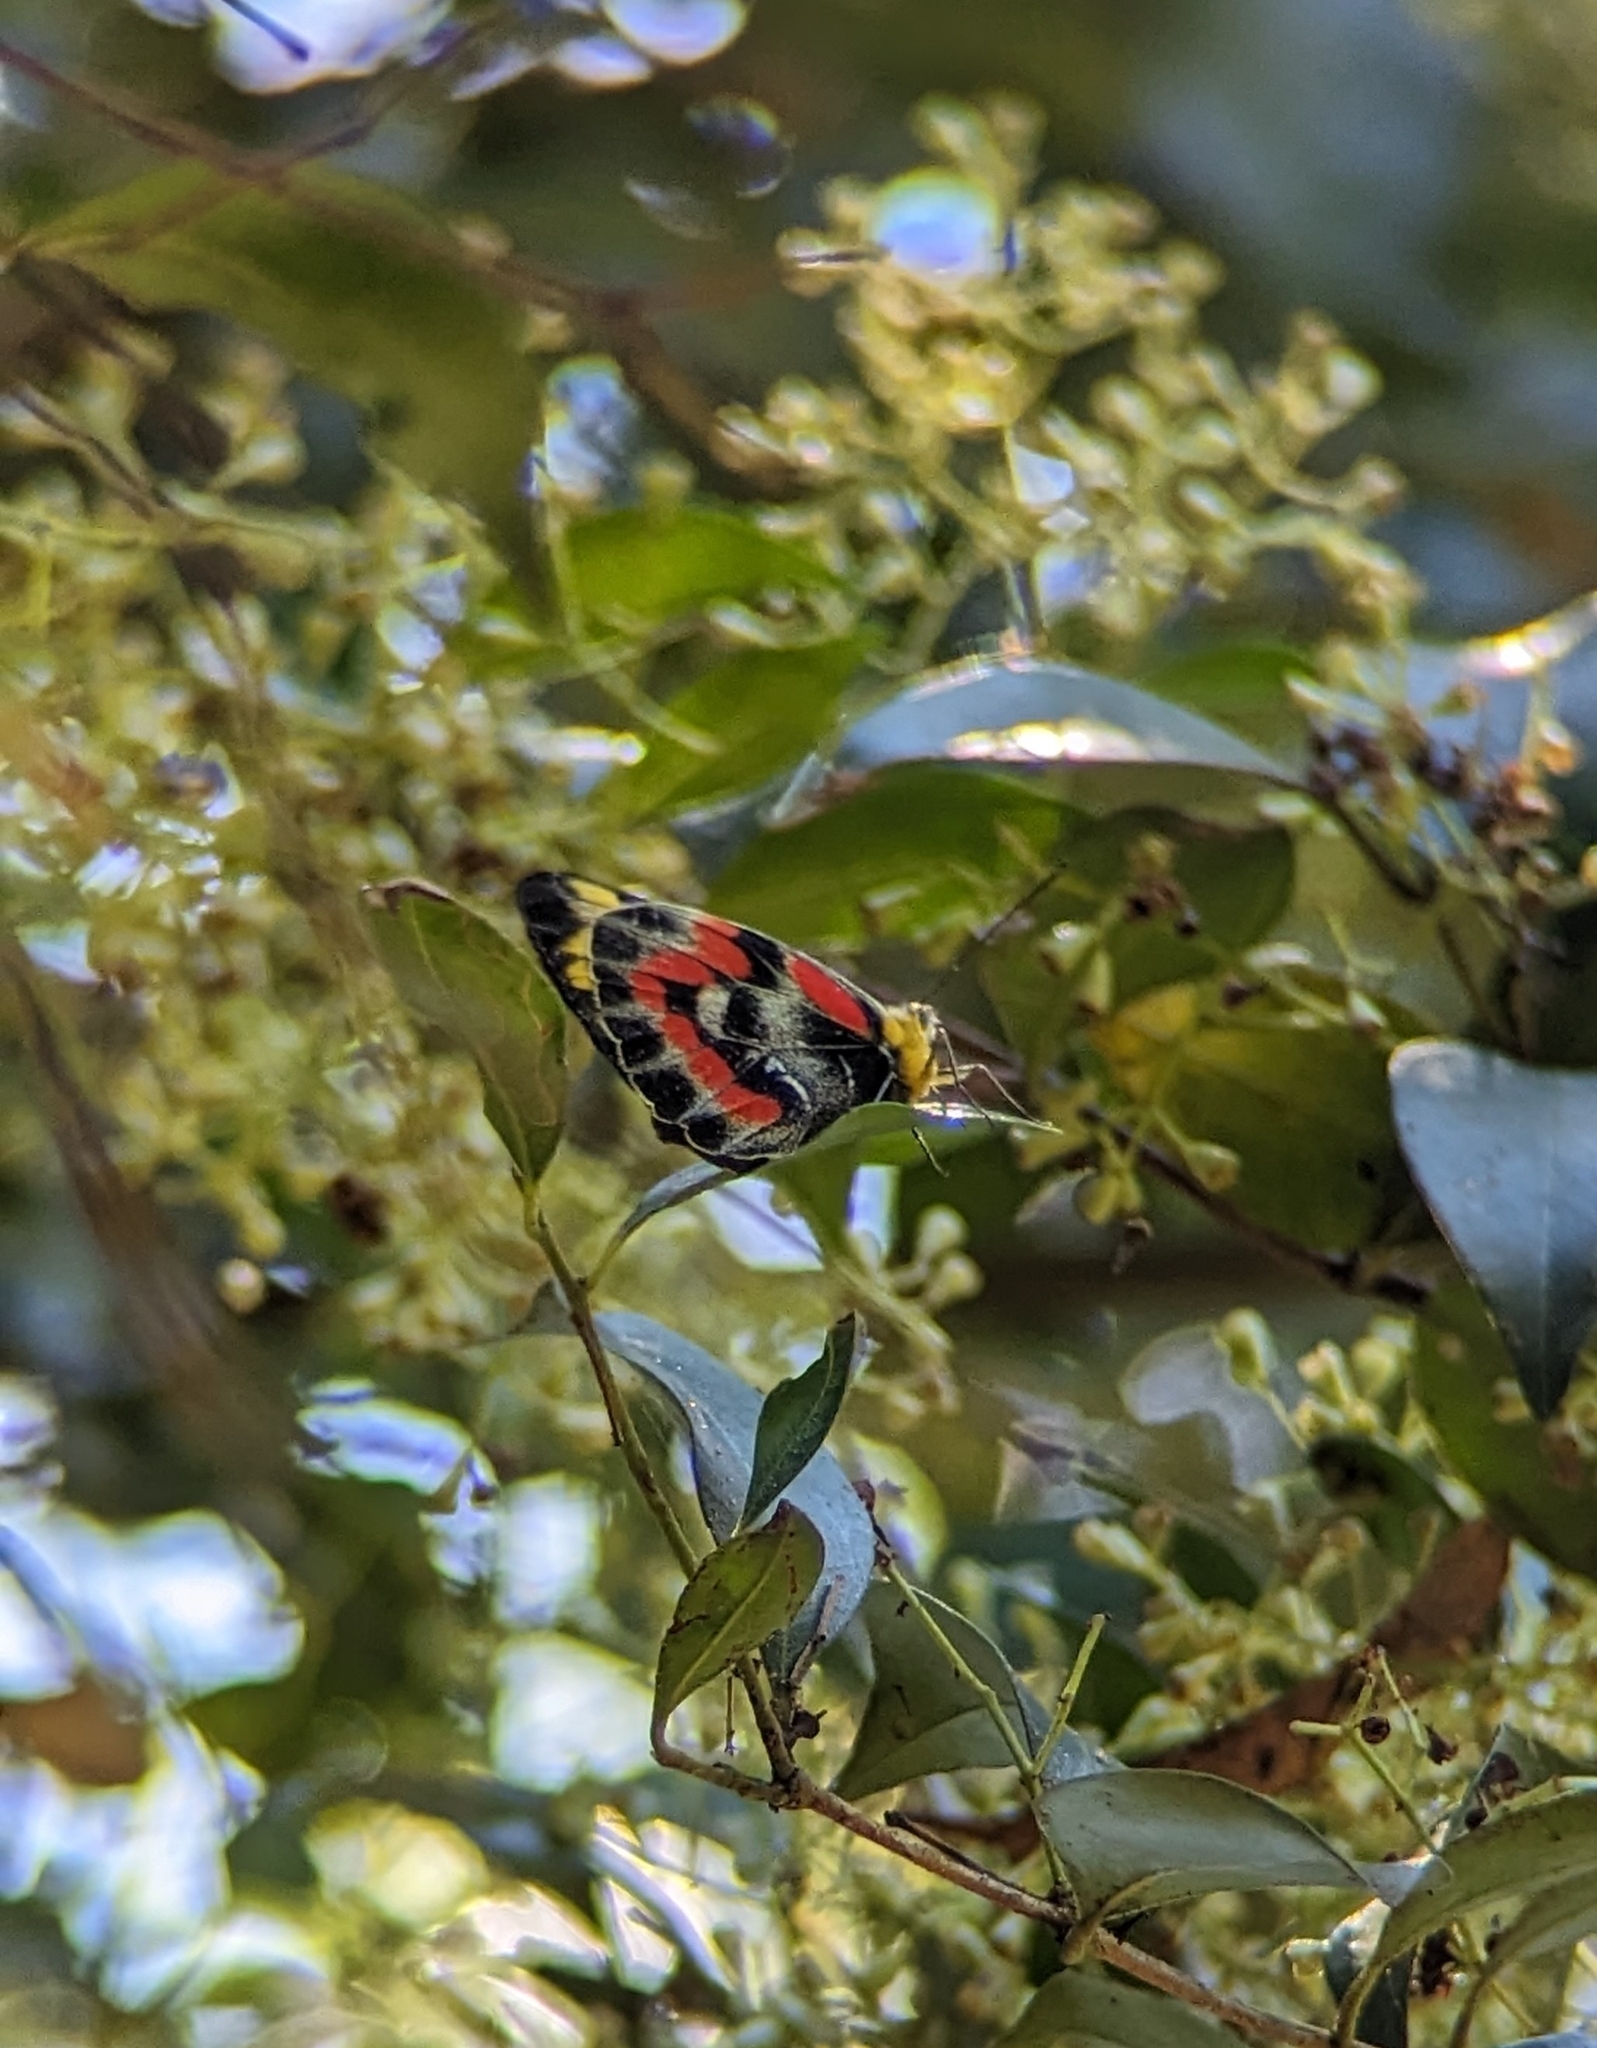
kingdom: Animalia
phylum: Arthropoda
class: Insecta
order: Lepidoptera
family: Pieridae
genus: Delias
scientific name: Delias harpalyce
